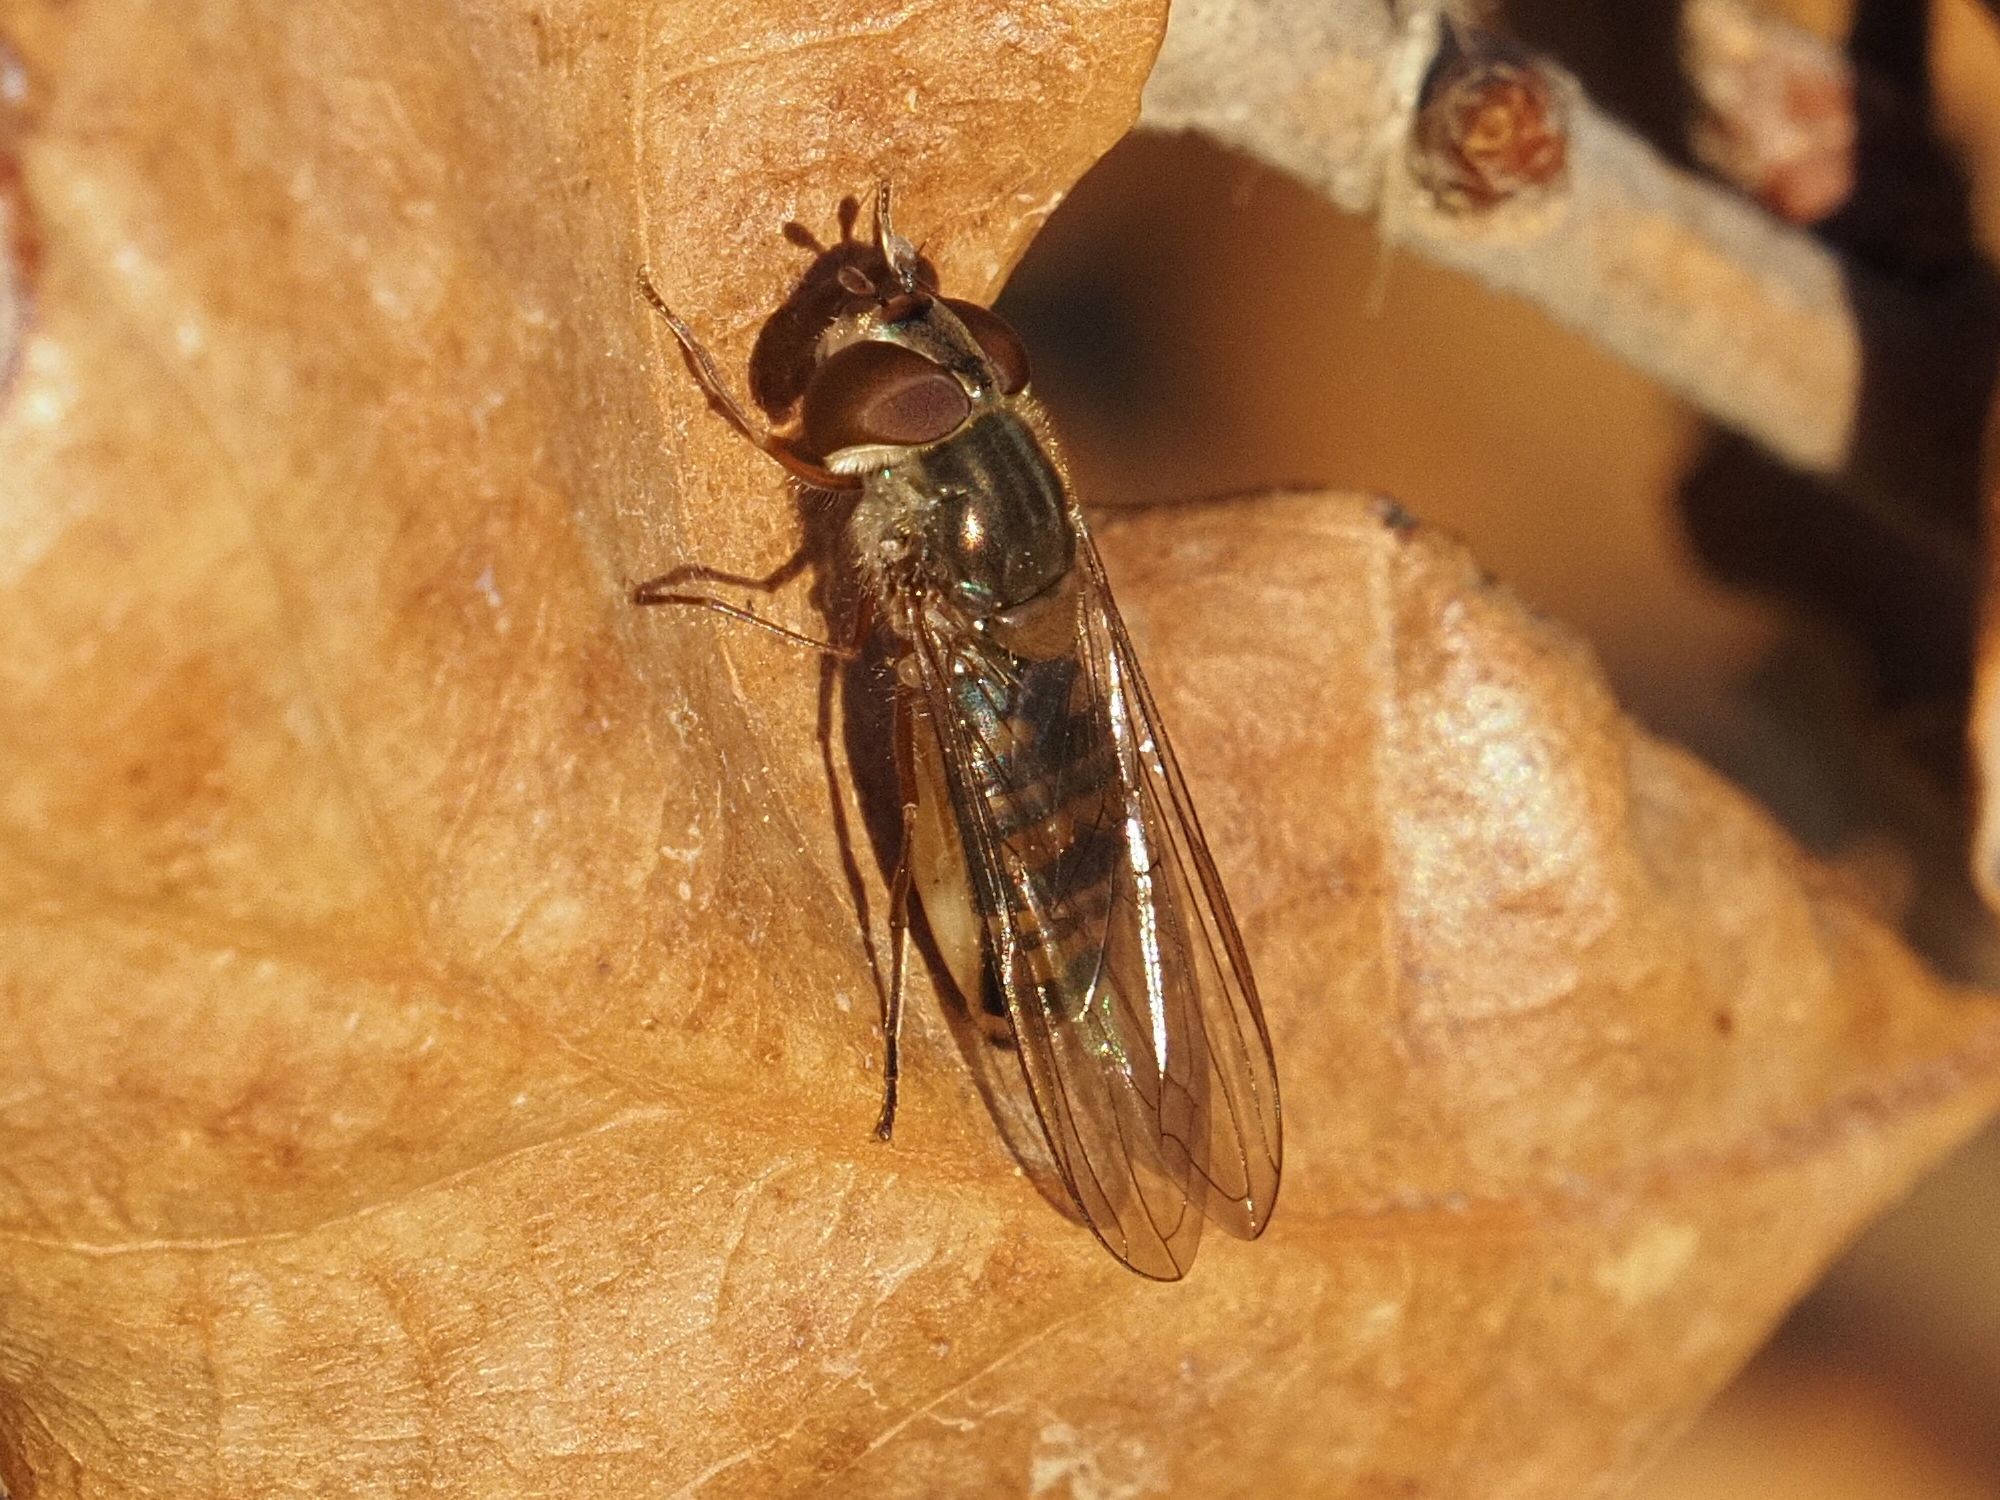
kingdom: Animalia
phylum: Arthropoda
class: Insecta
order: Diptera
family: Syrphidae
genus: Episyrphus
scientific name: Episyrphus balteatus
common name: Marmalade hoverfly
